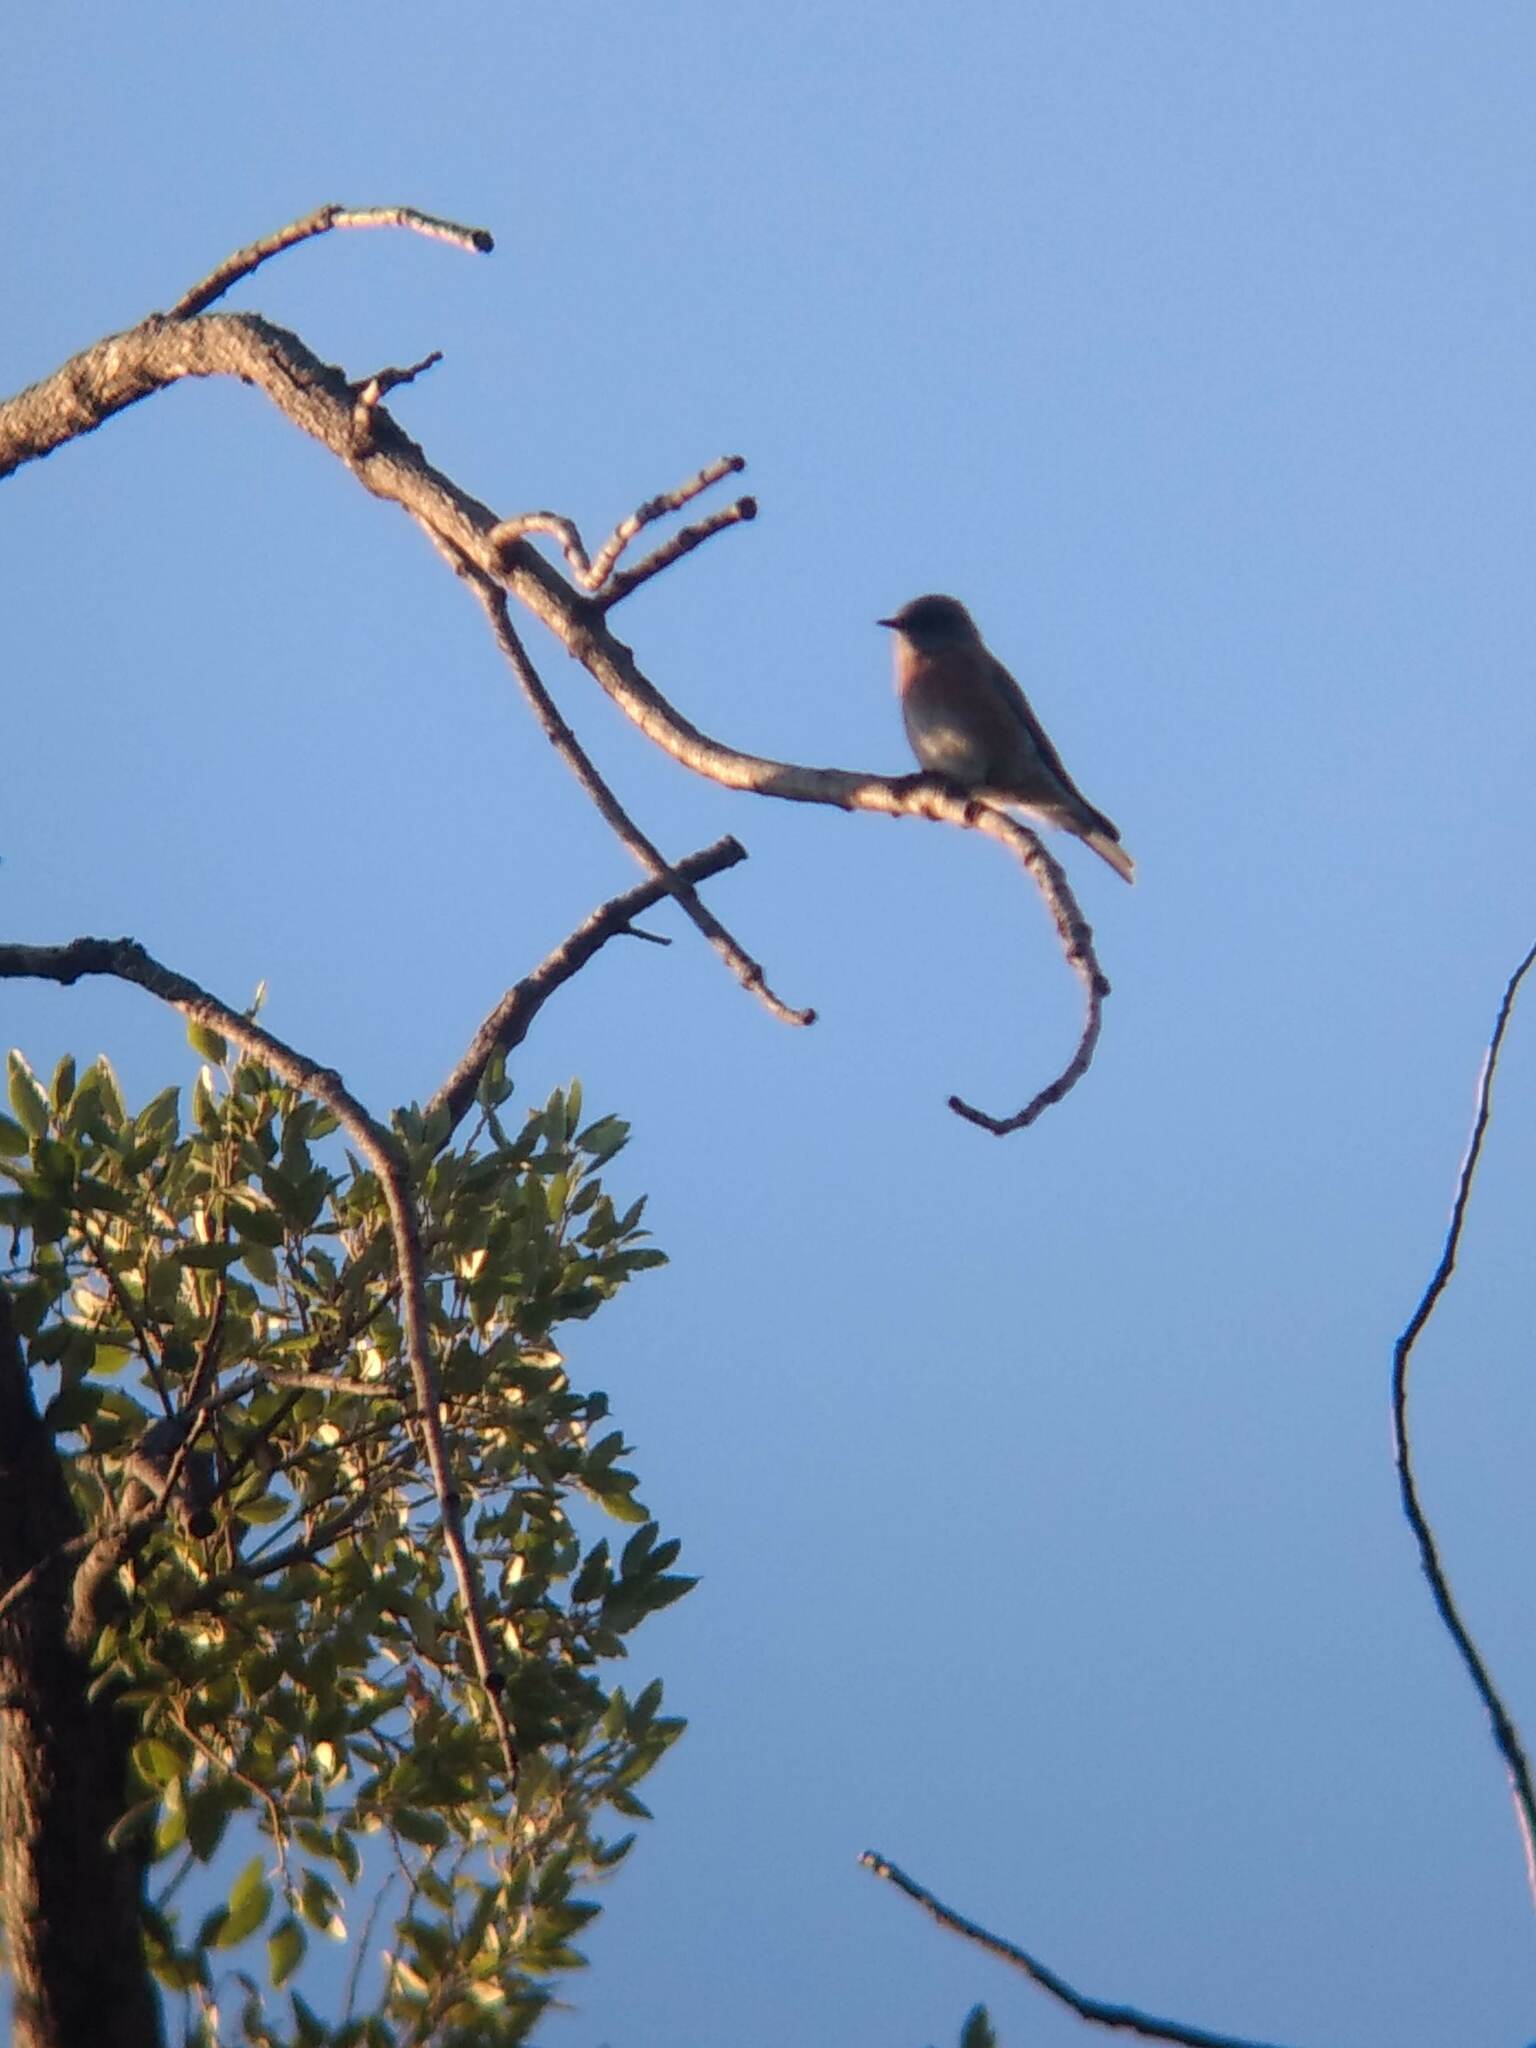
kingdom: Animalia
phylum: Chordata
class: Aves
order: Passeriformes
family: Turdidae
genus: Sialia
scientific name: Sialia mexicana
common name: Western bluebird
